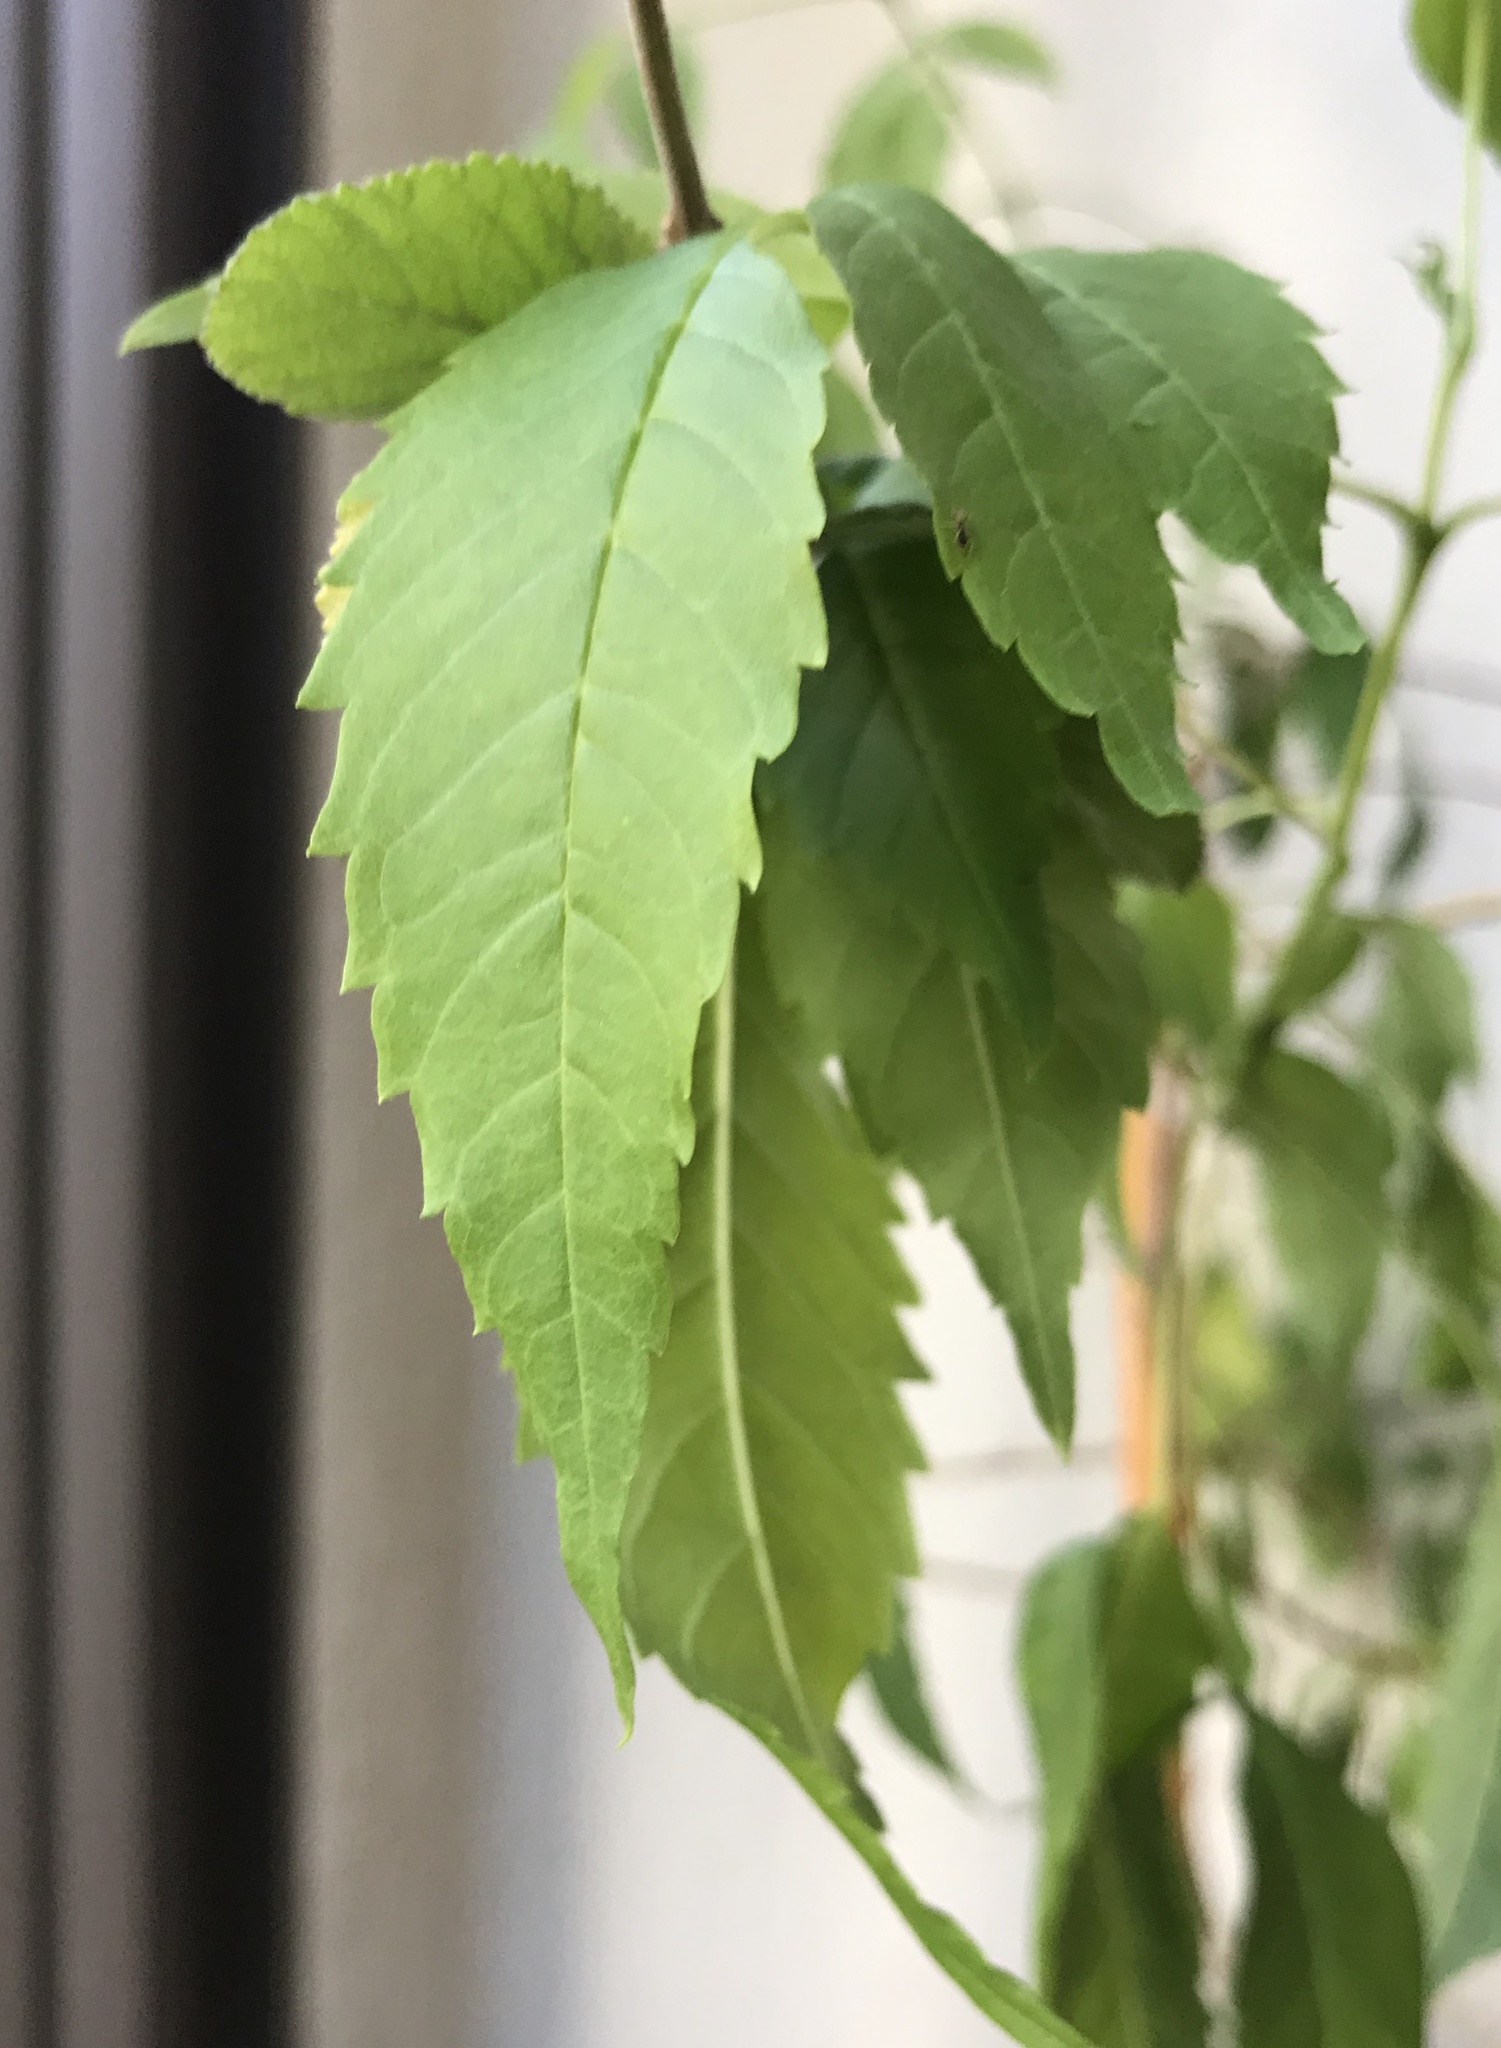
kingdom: Plantae
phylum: Tracheophyta
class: Magnoliopsida
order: Lamiales
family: Bignoniaceae
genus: Tecoma
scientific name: Tecoma stans
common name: Yellow trumpetbush
